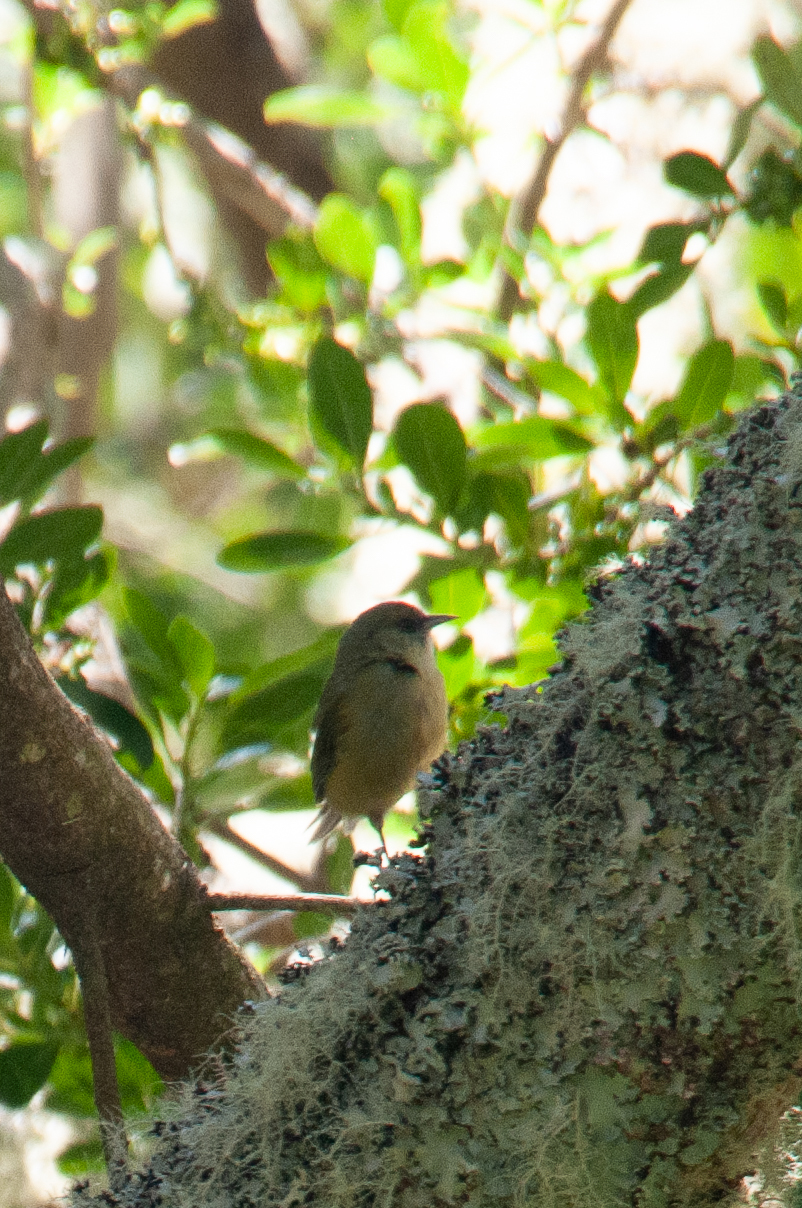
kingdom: Animalia
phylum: Chordata
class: Aves
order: Passeriformes
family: Fringillidae
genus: Loxops
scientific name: Loxops mana
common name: Hawaii creeper
